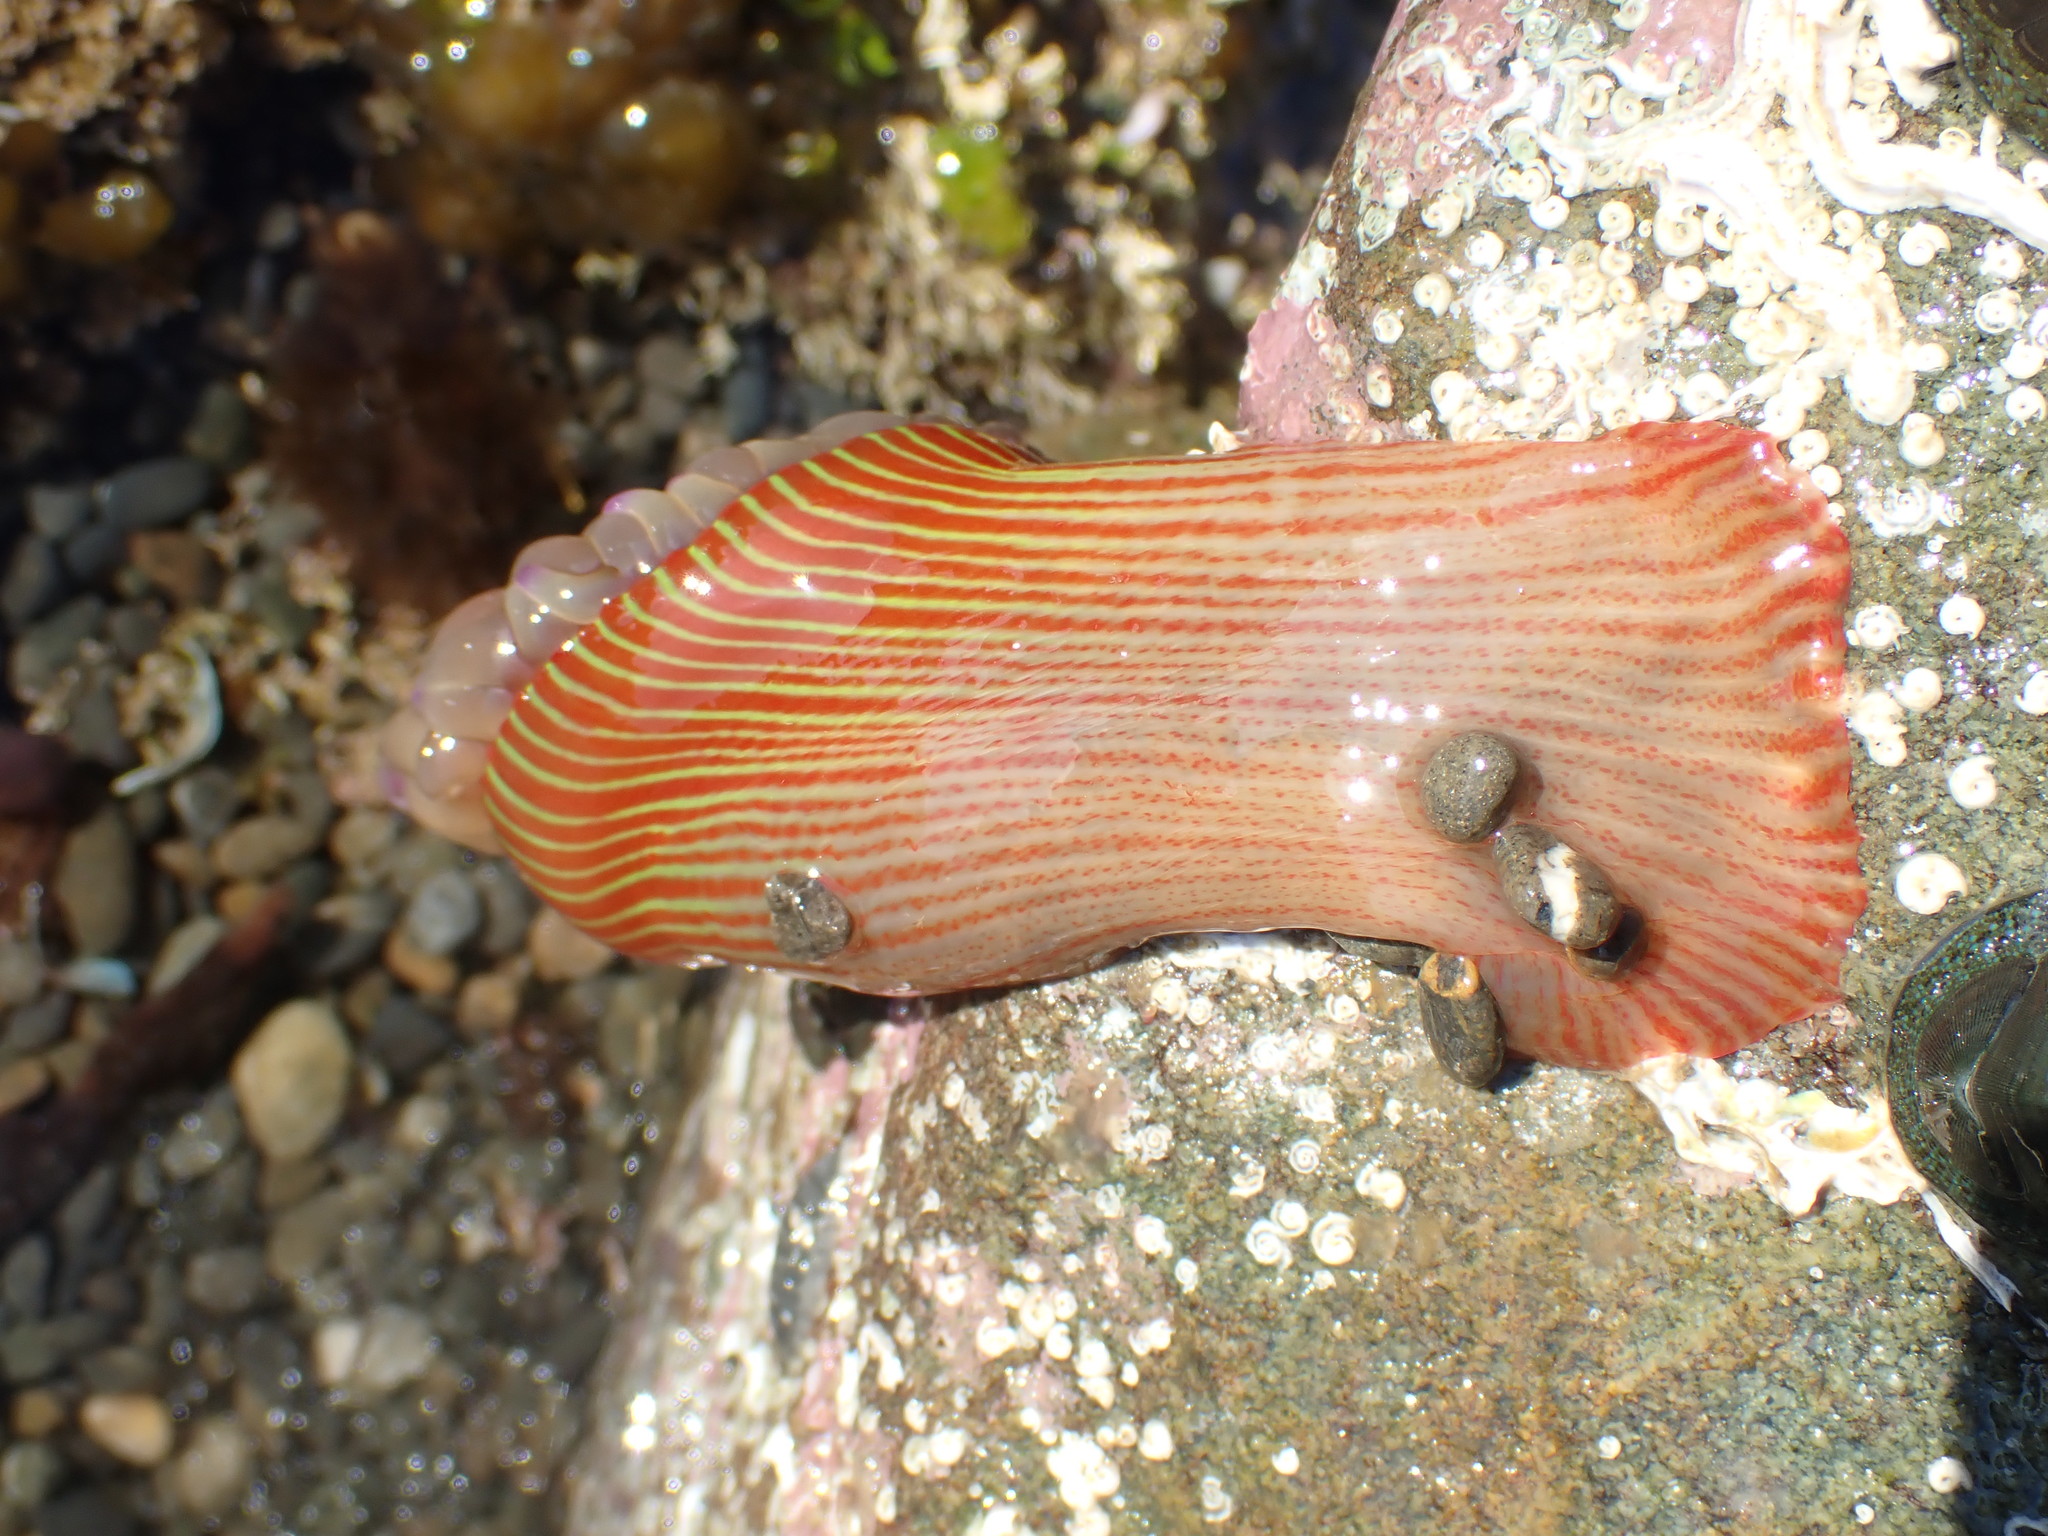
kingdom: Animalia
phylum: Cnidaria
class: Anthozoa
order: Actiniaria
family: Actiniidae
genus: Epiactis
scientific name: Epiactis thompsoni
